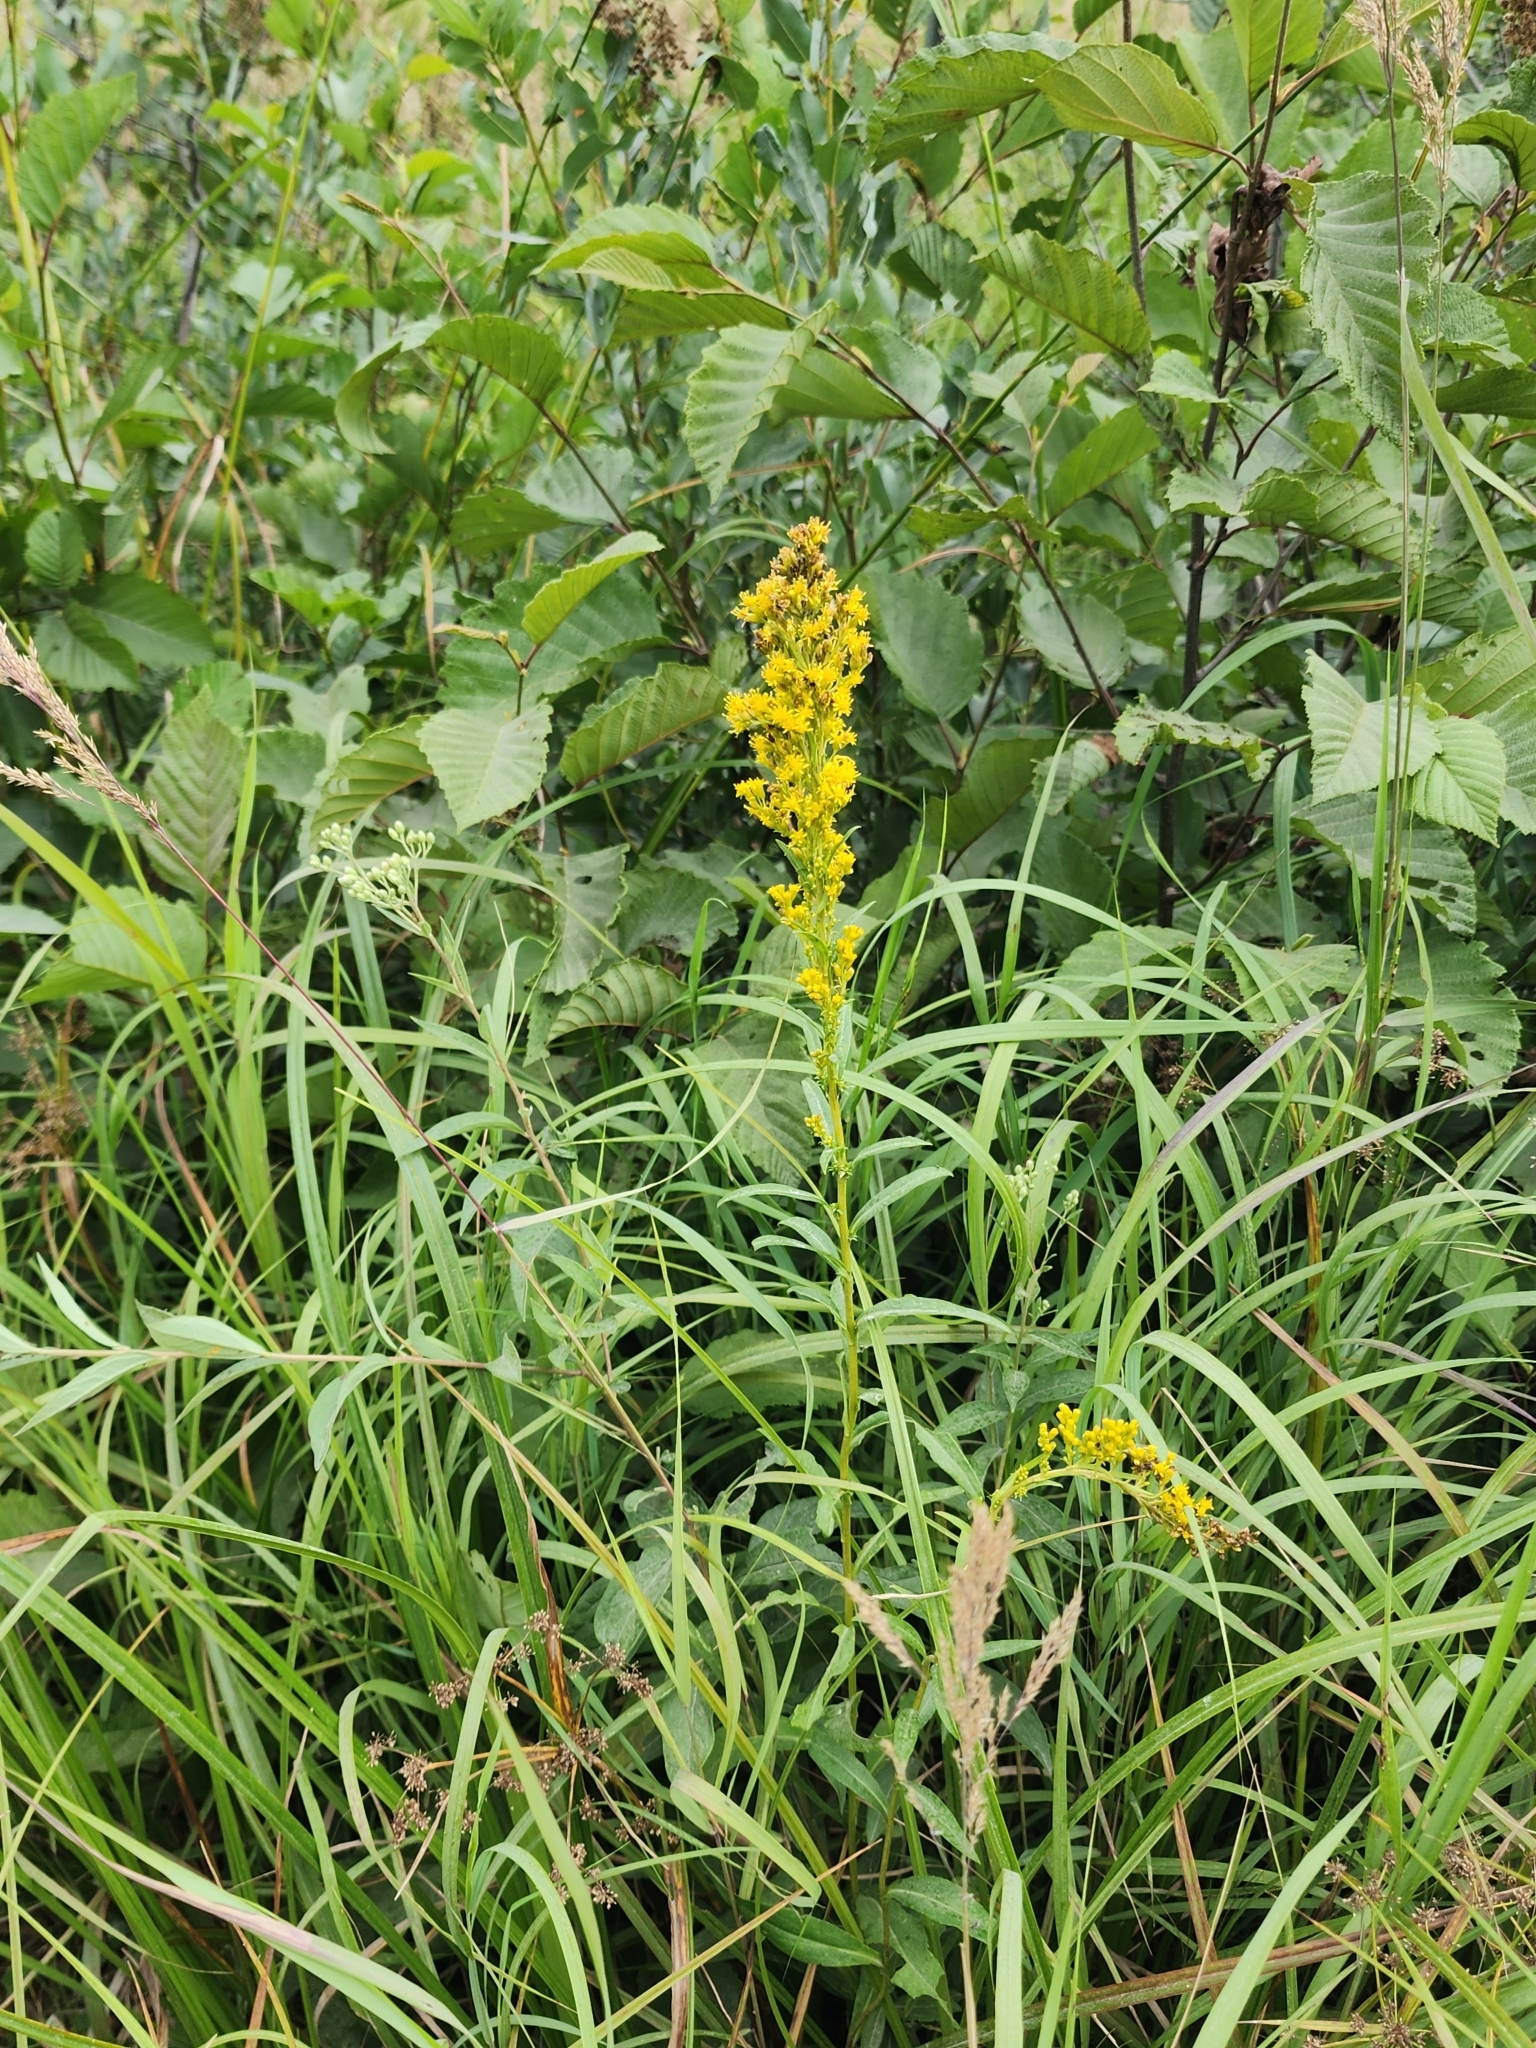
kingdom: Plantae
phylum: Tracheophyta
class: Magnoliopsida
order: Asterales
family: Asteraceae
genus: Solidago
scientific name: Solidago uliginosa
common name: Bog goldenrod
